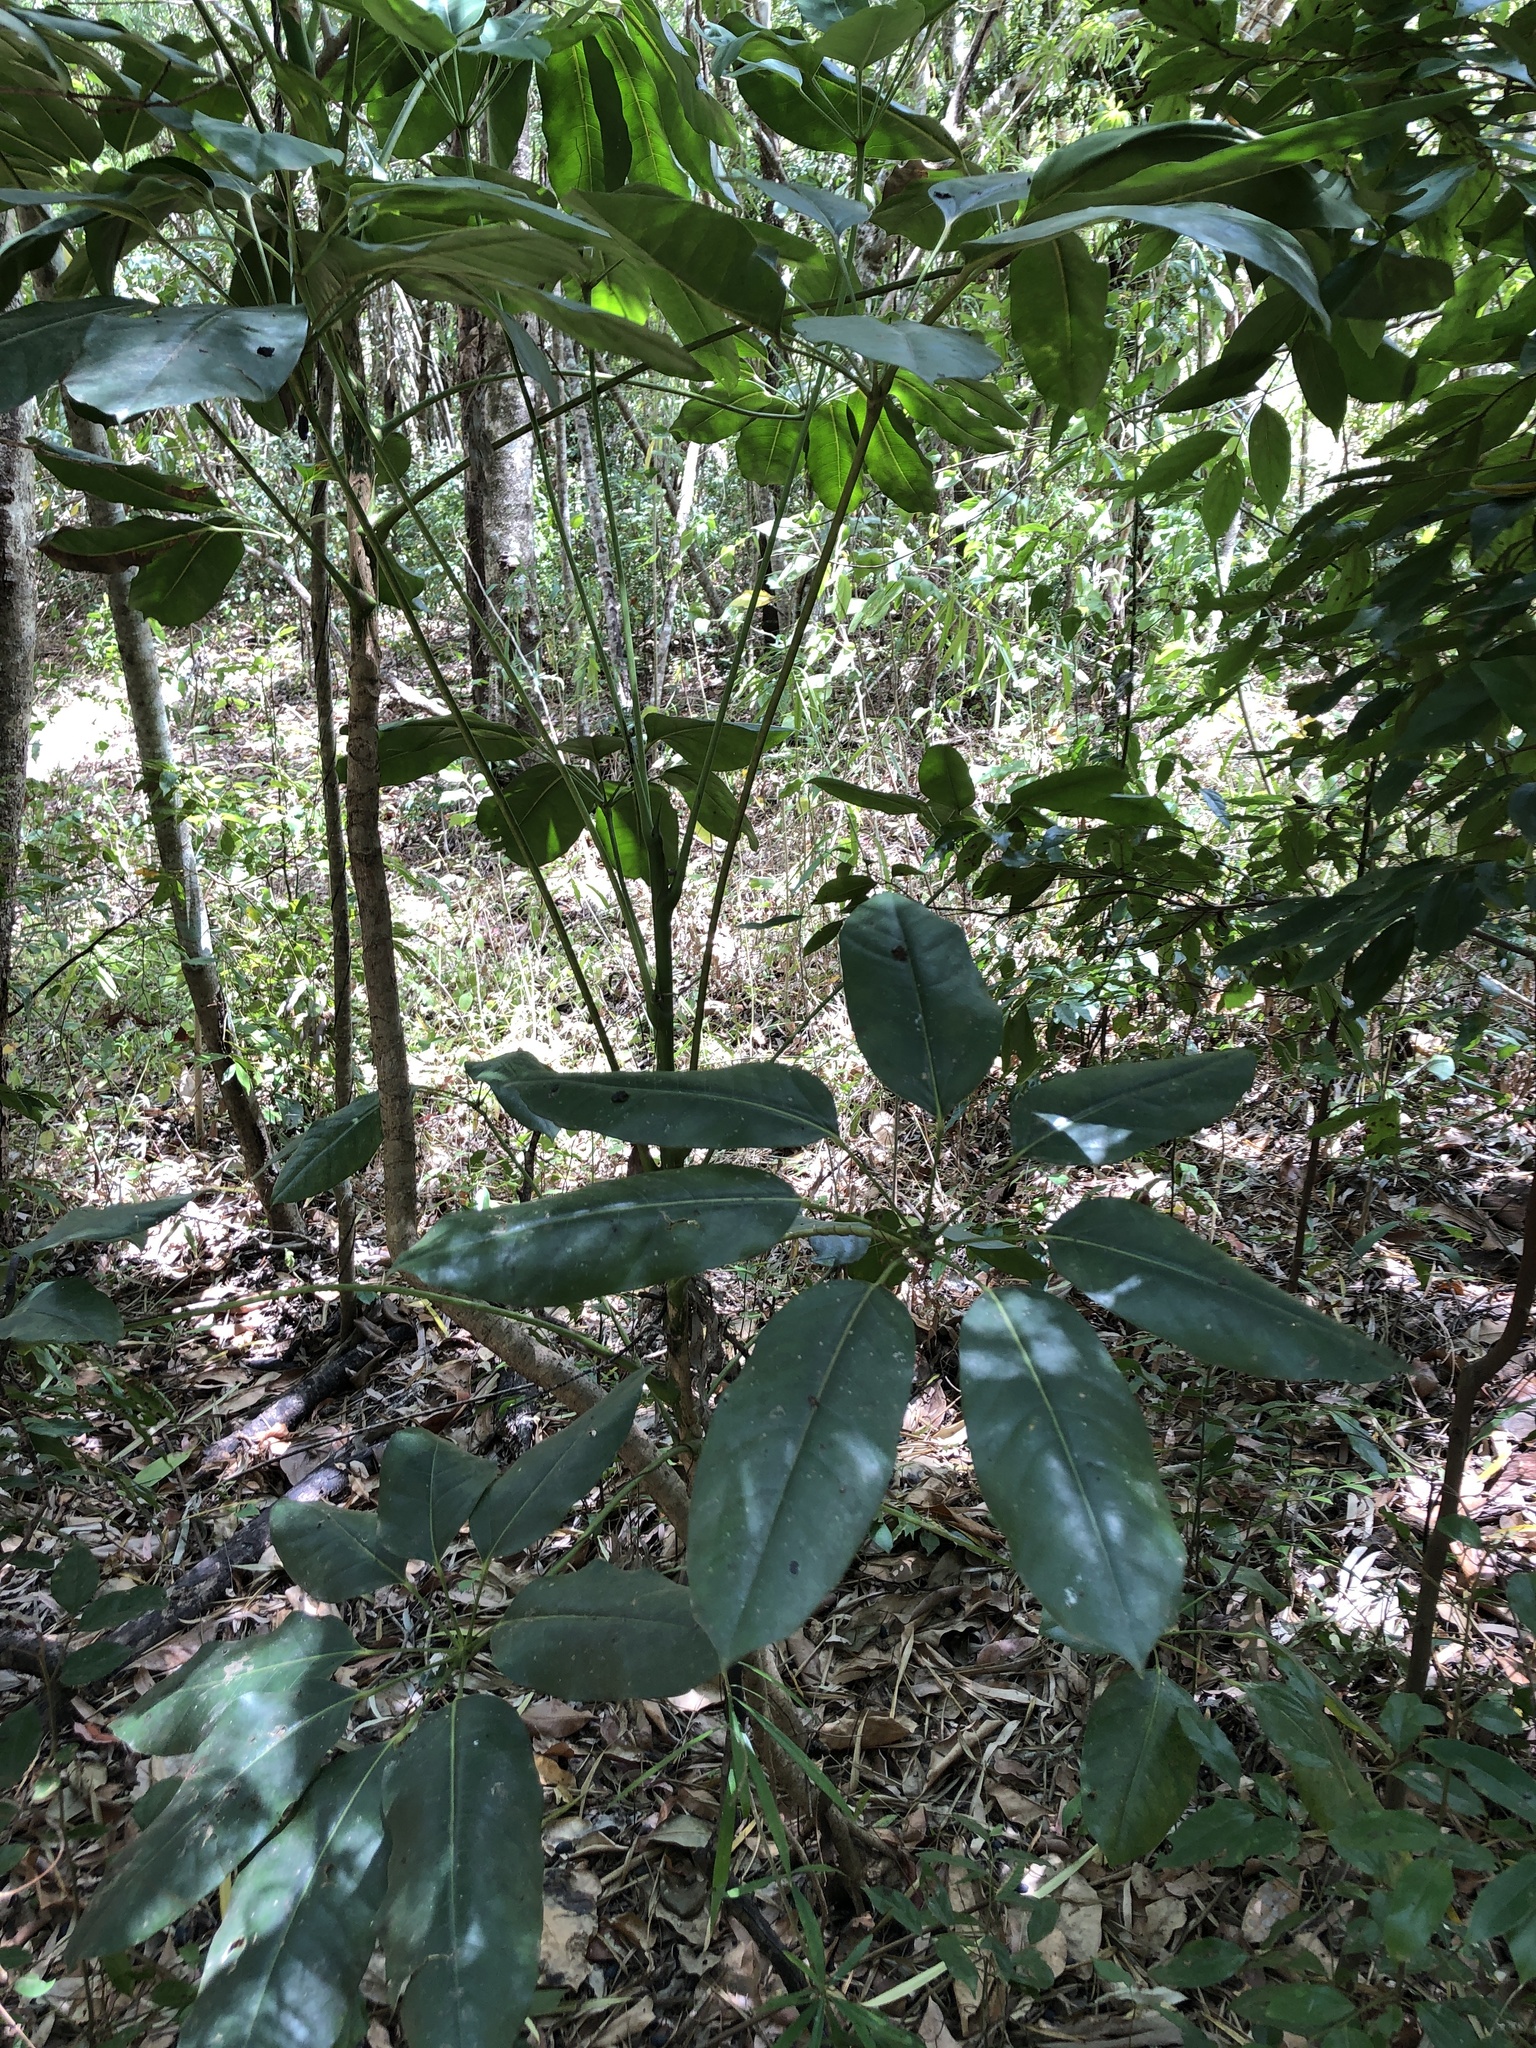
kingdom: Plantae
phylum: Tracheophyta
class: Magnoliopsida
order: Apiales
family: Araliaceae
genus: Heptapleurum
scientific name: Heptapleurum actinophyllum
